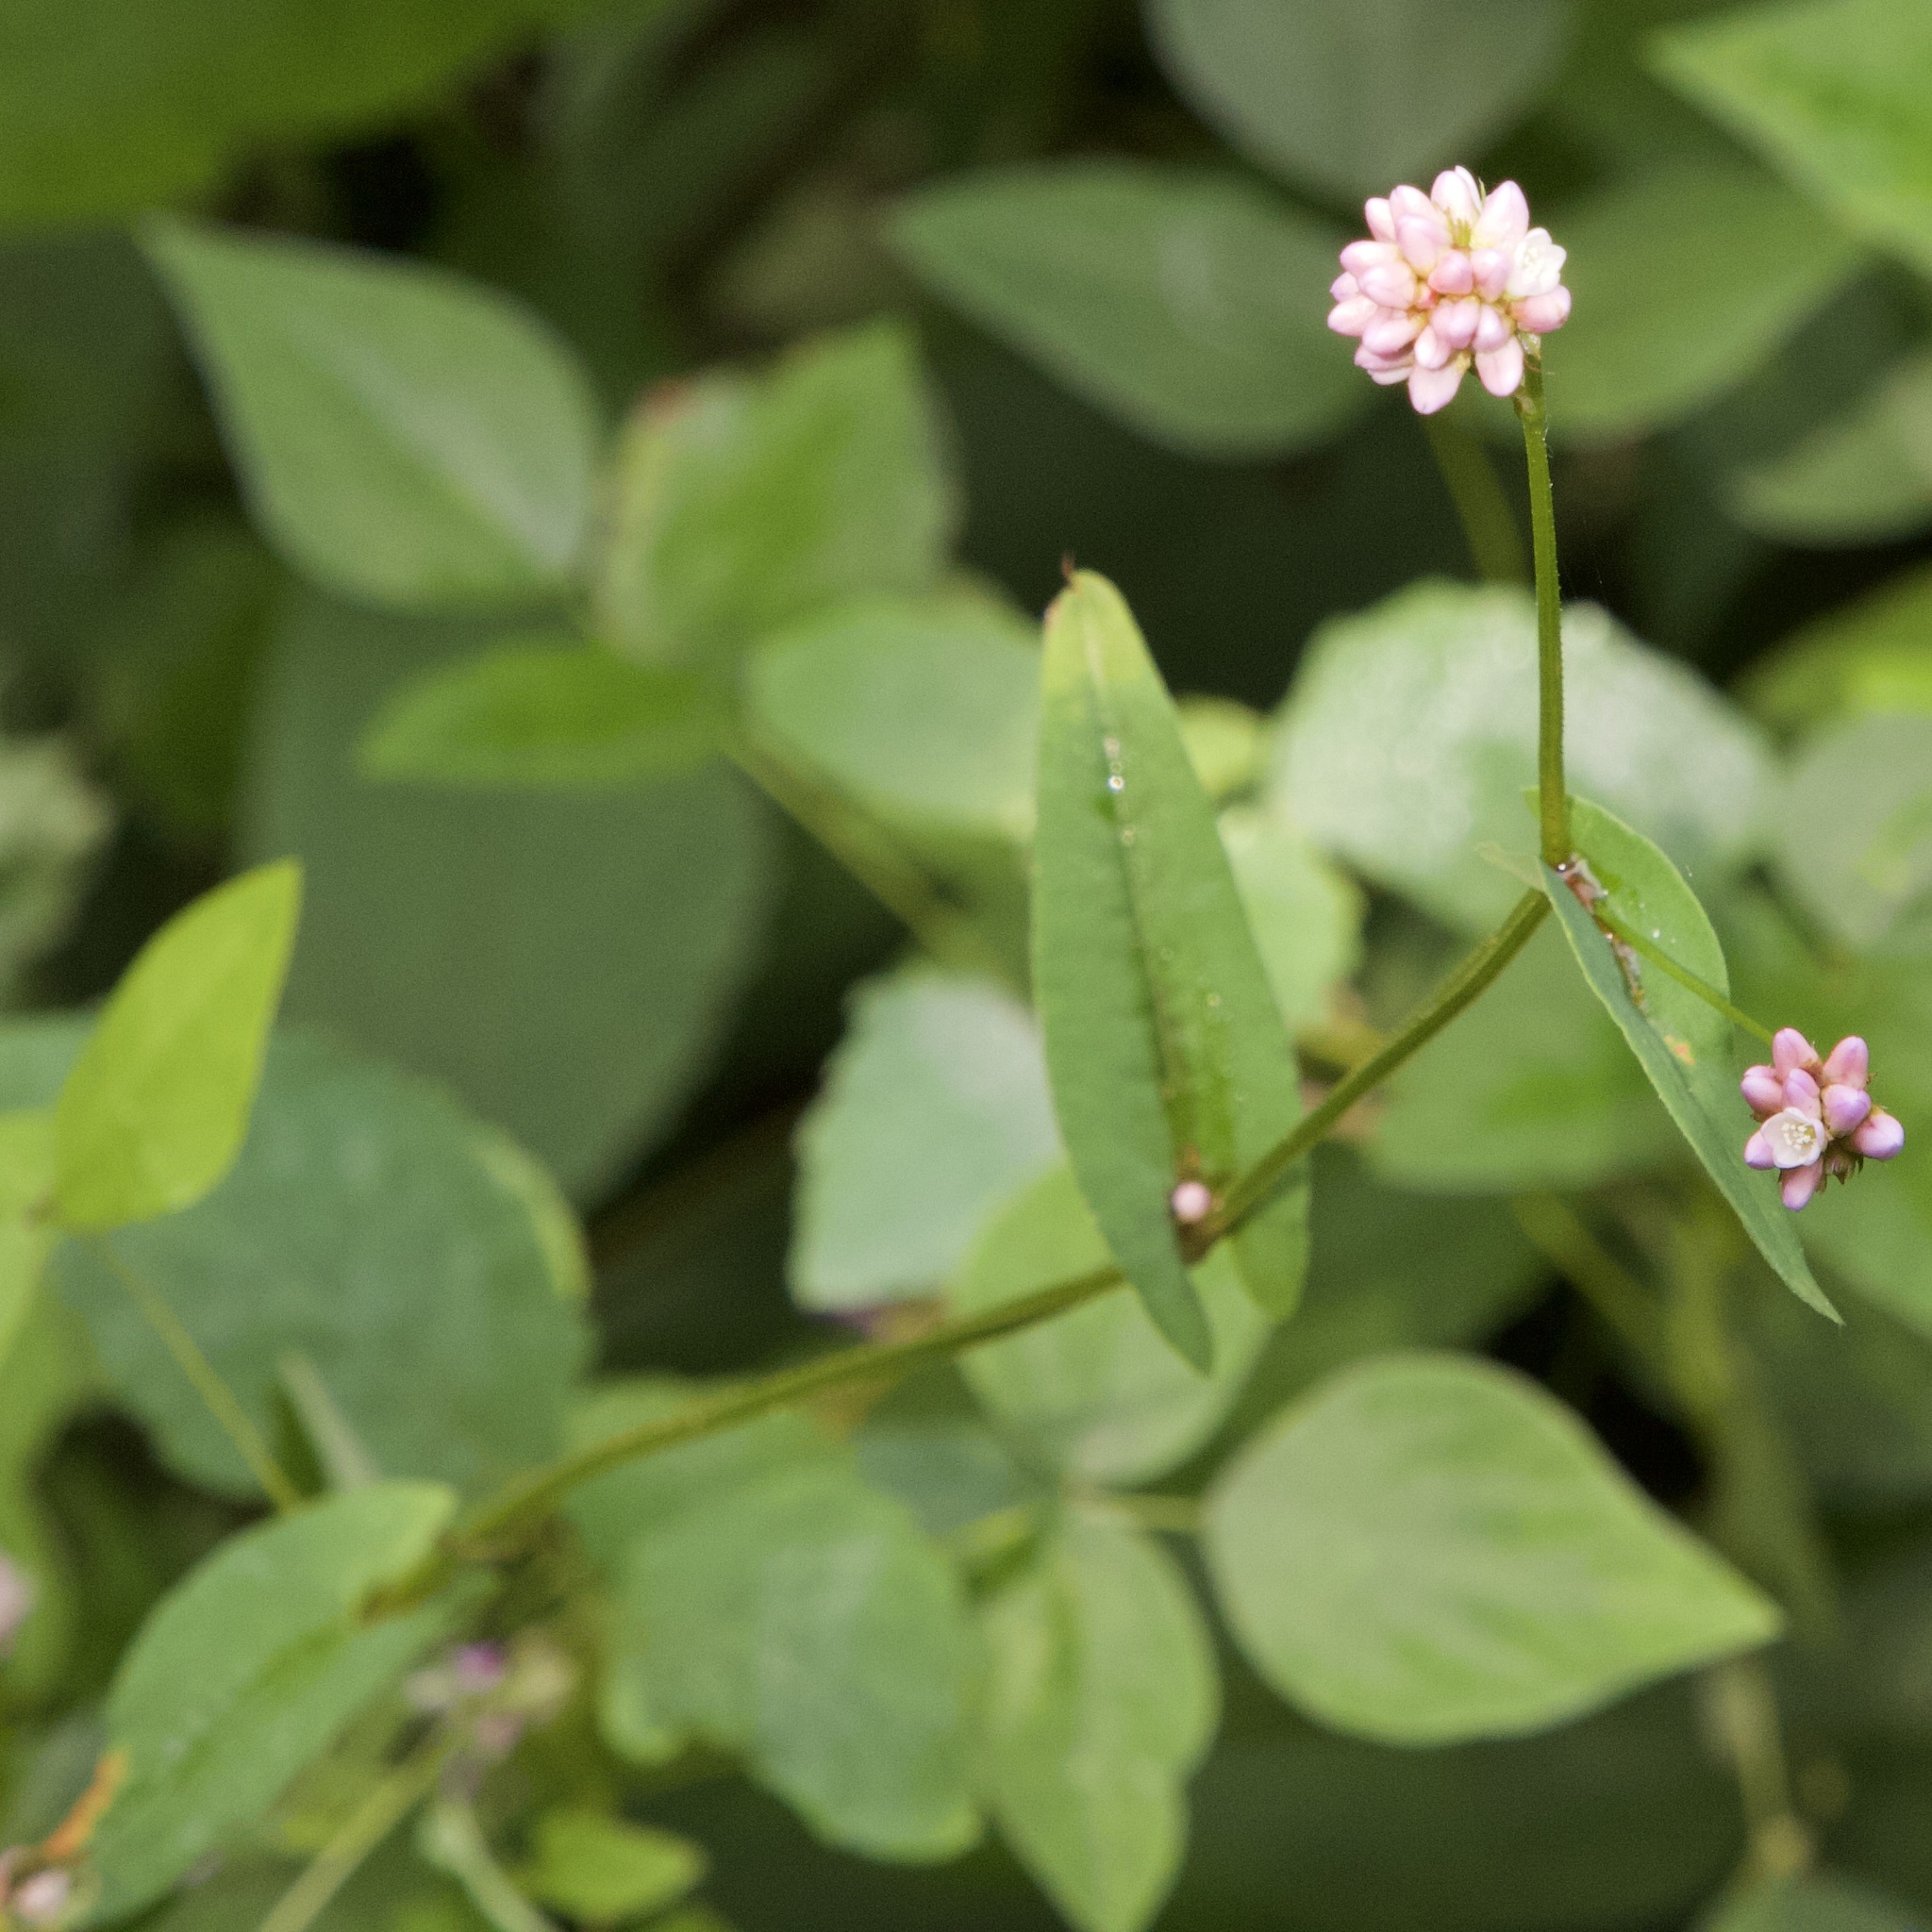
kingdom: Plantae
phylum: Tracheophyta
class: Magnoliopsida
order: Caryophyllales
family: Polygonaceae
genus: Persicaria
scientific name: Persicaria sagittata
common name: American tearthumb
